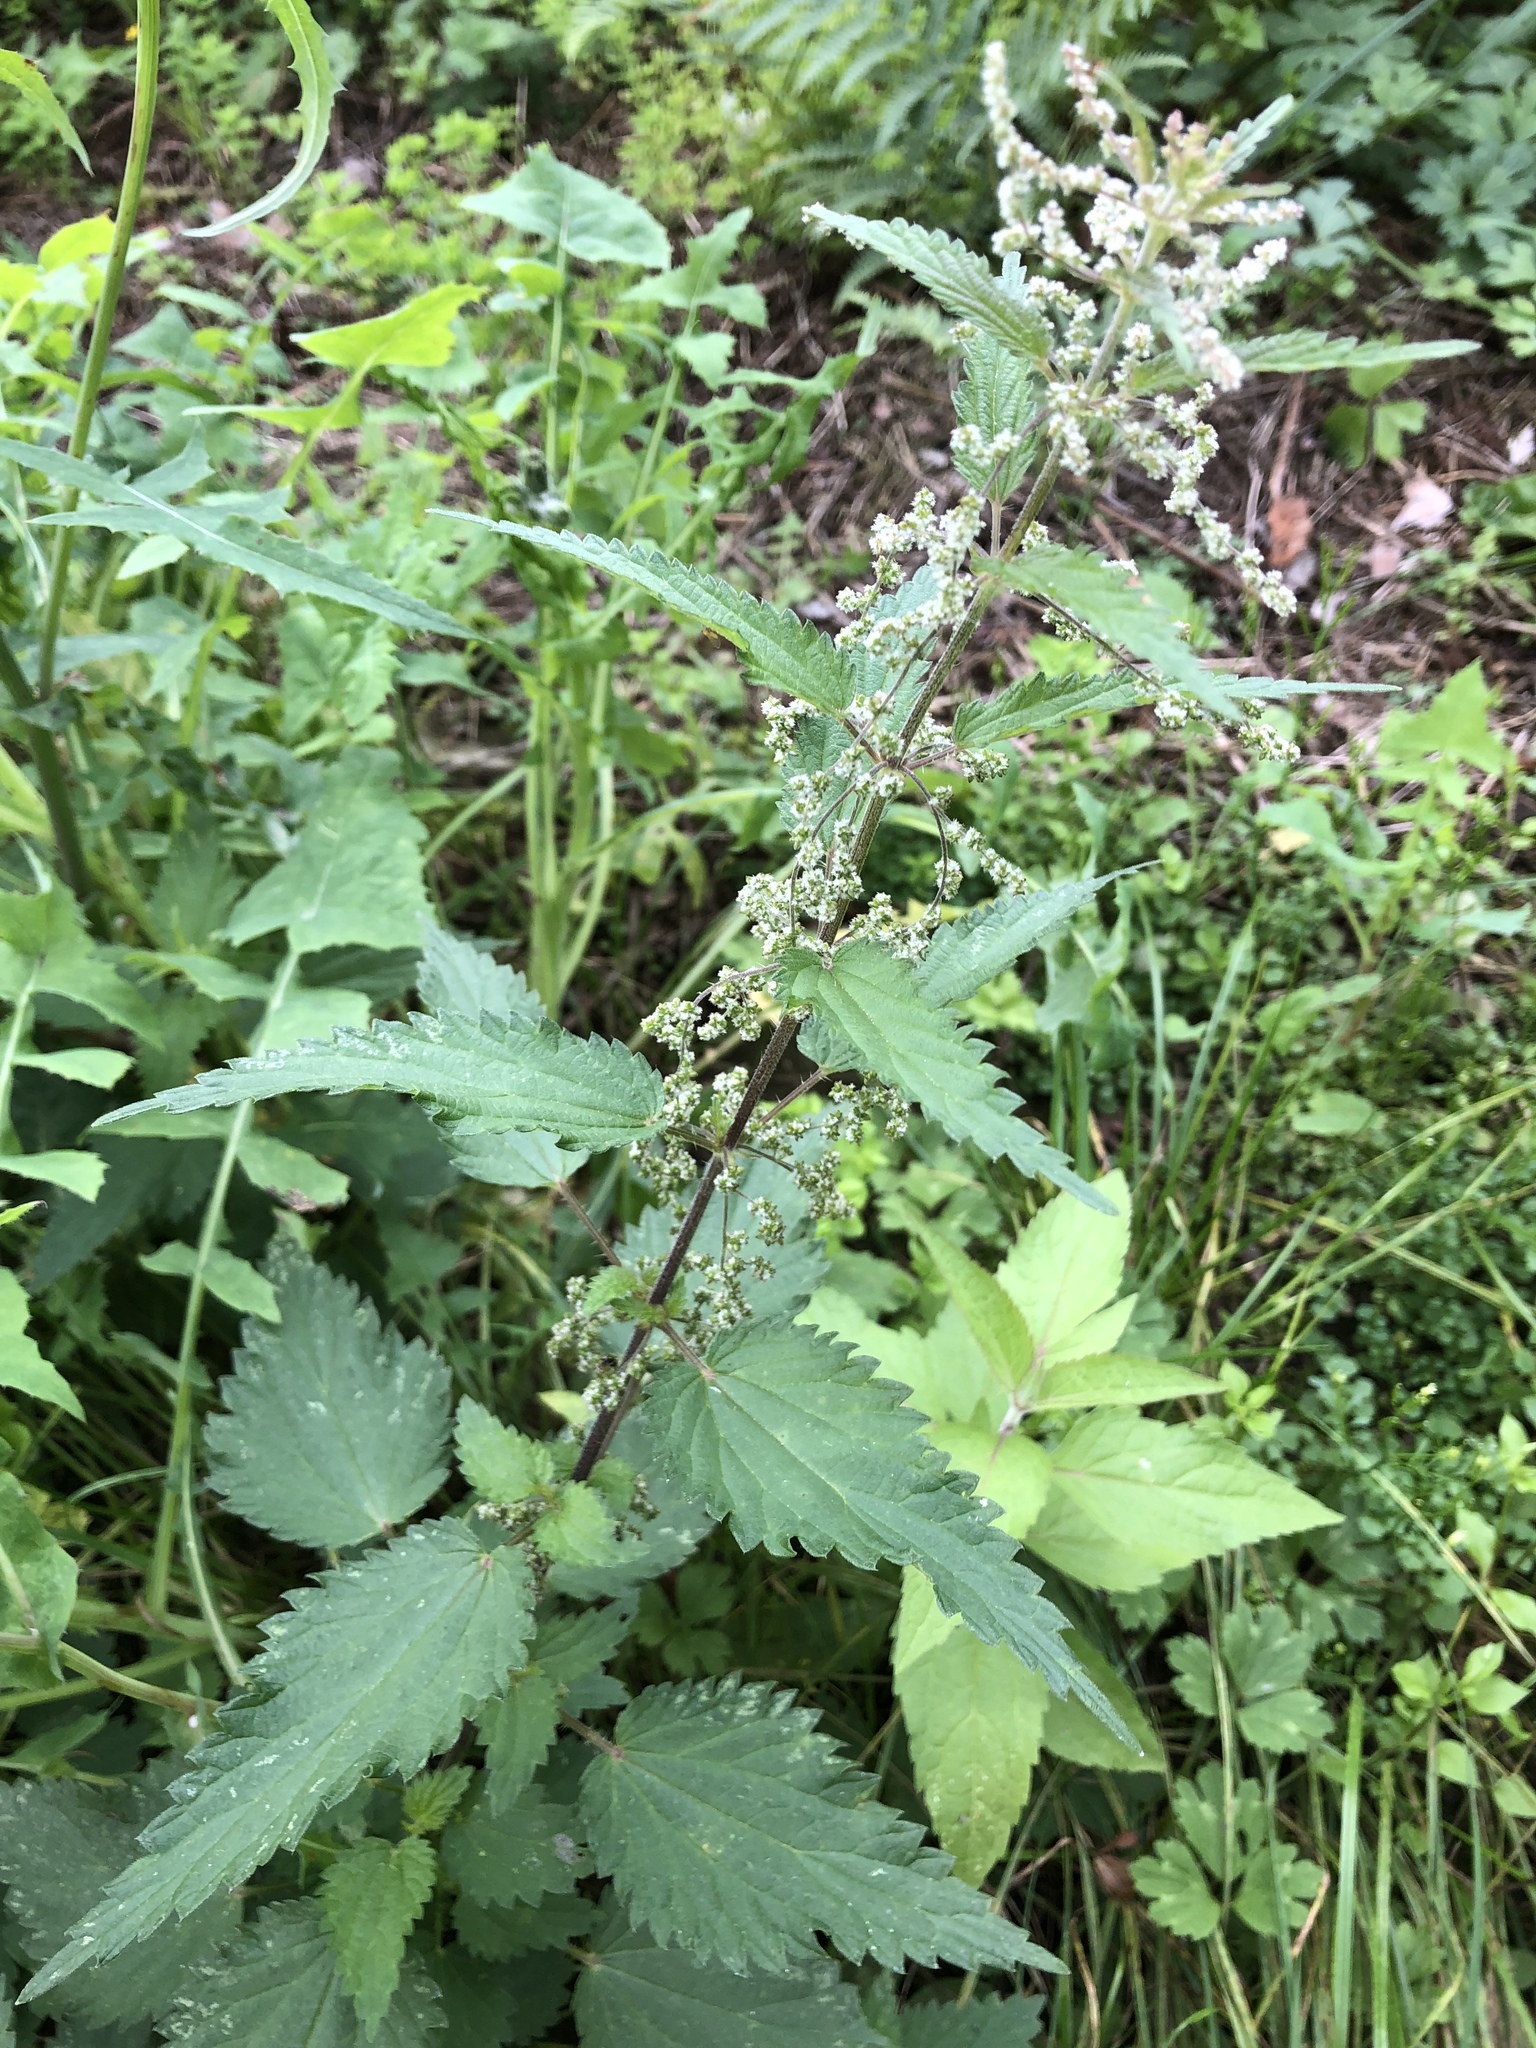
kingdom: Plantae
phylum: Tracheophyta
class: Magnoliopsida
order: Rosales
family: Urticaceae
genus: Urtica
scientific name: Urtica dioica
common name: Common nettle
